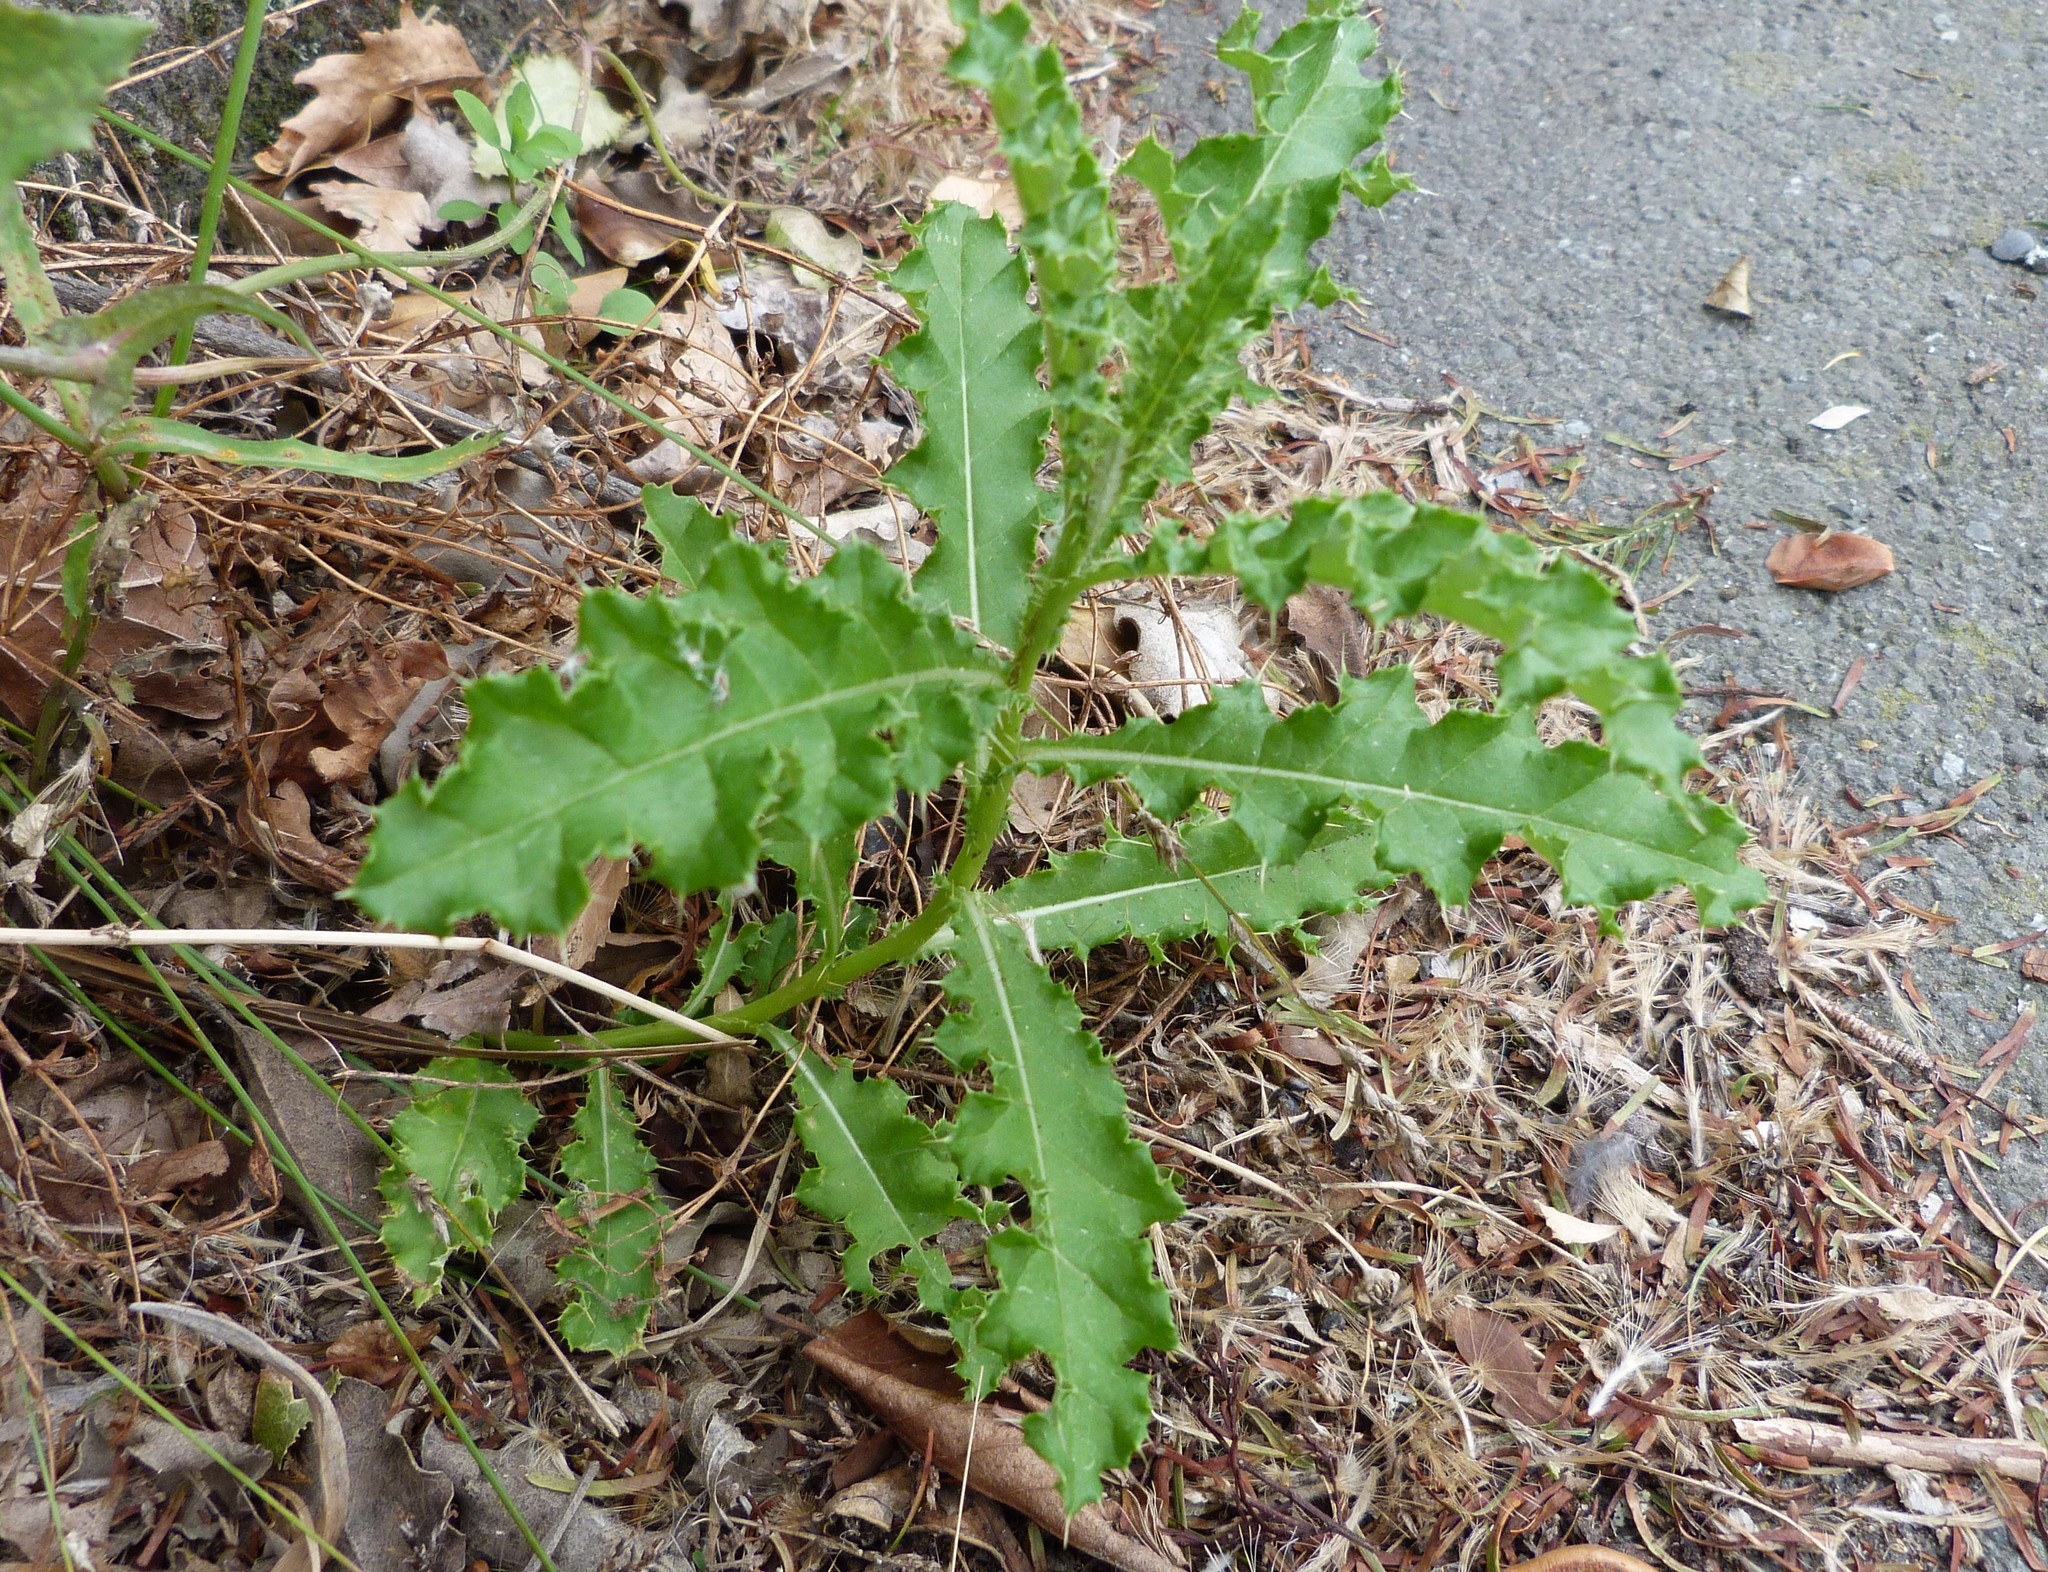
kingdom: Plantae
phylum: Tracheophyta
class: Magnoliopsida
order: Asterales
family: Asteraceae
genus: Cirsium
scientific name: Cirsium arvense
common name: Creeping thistle
